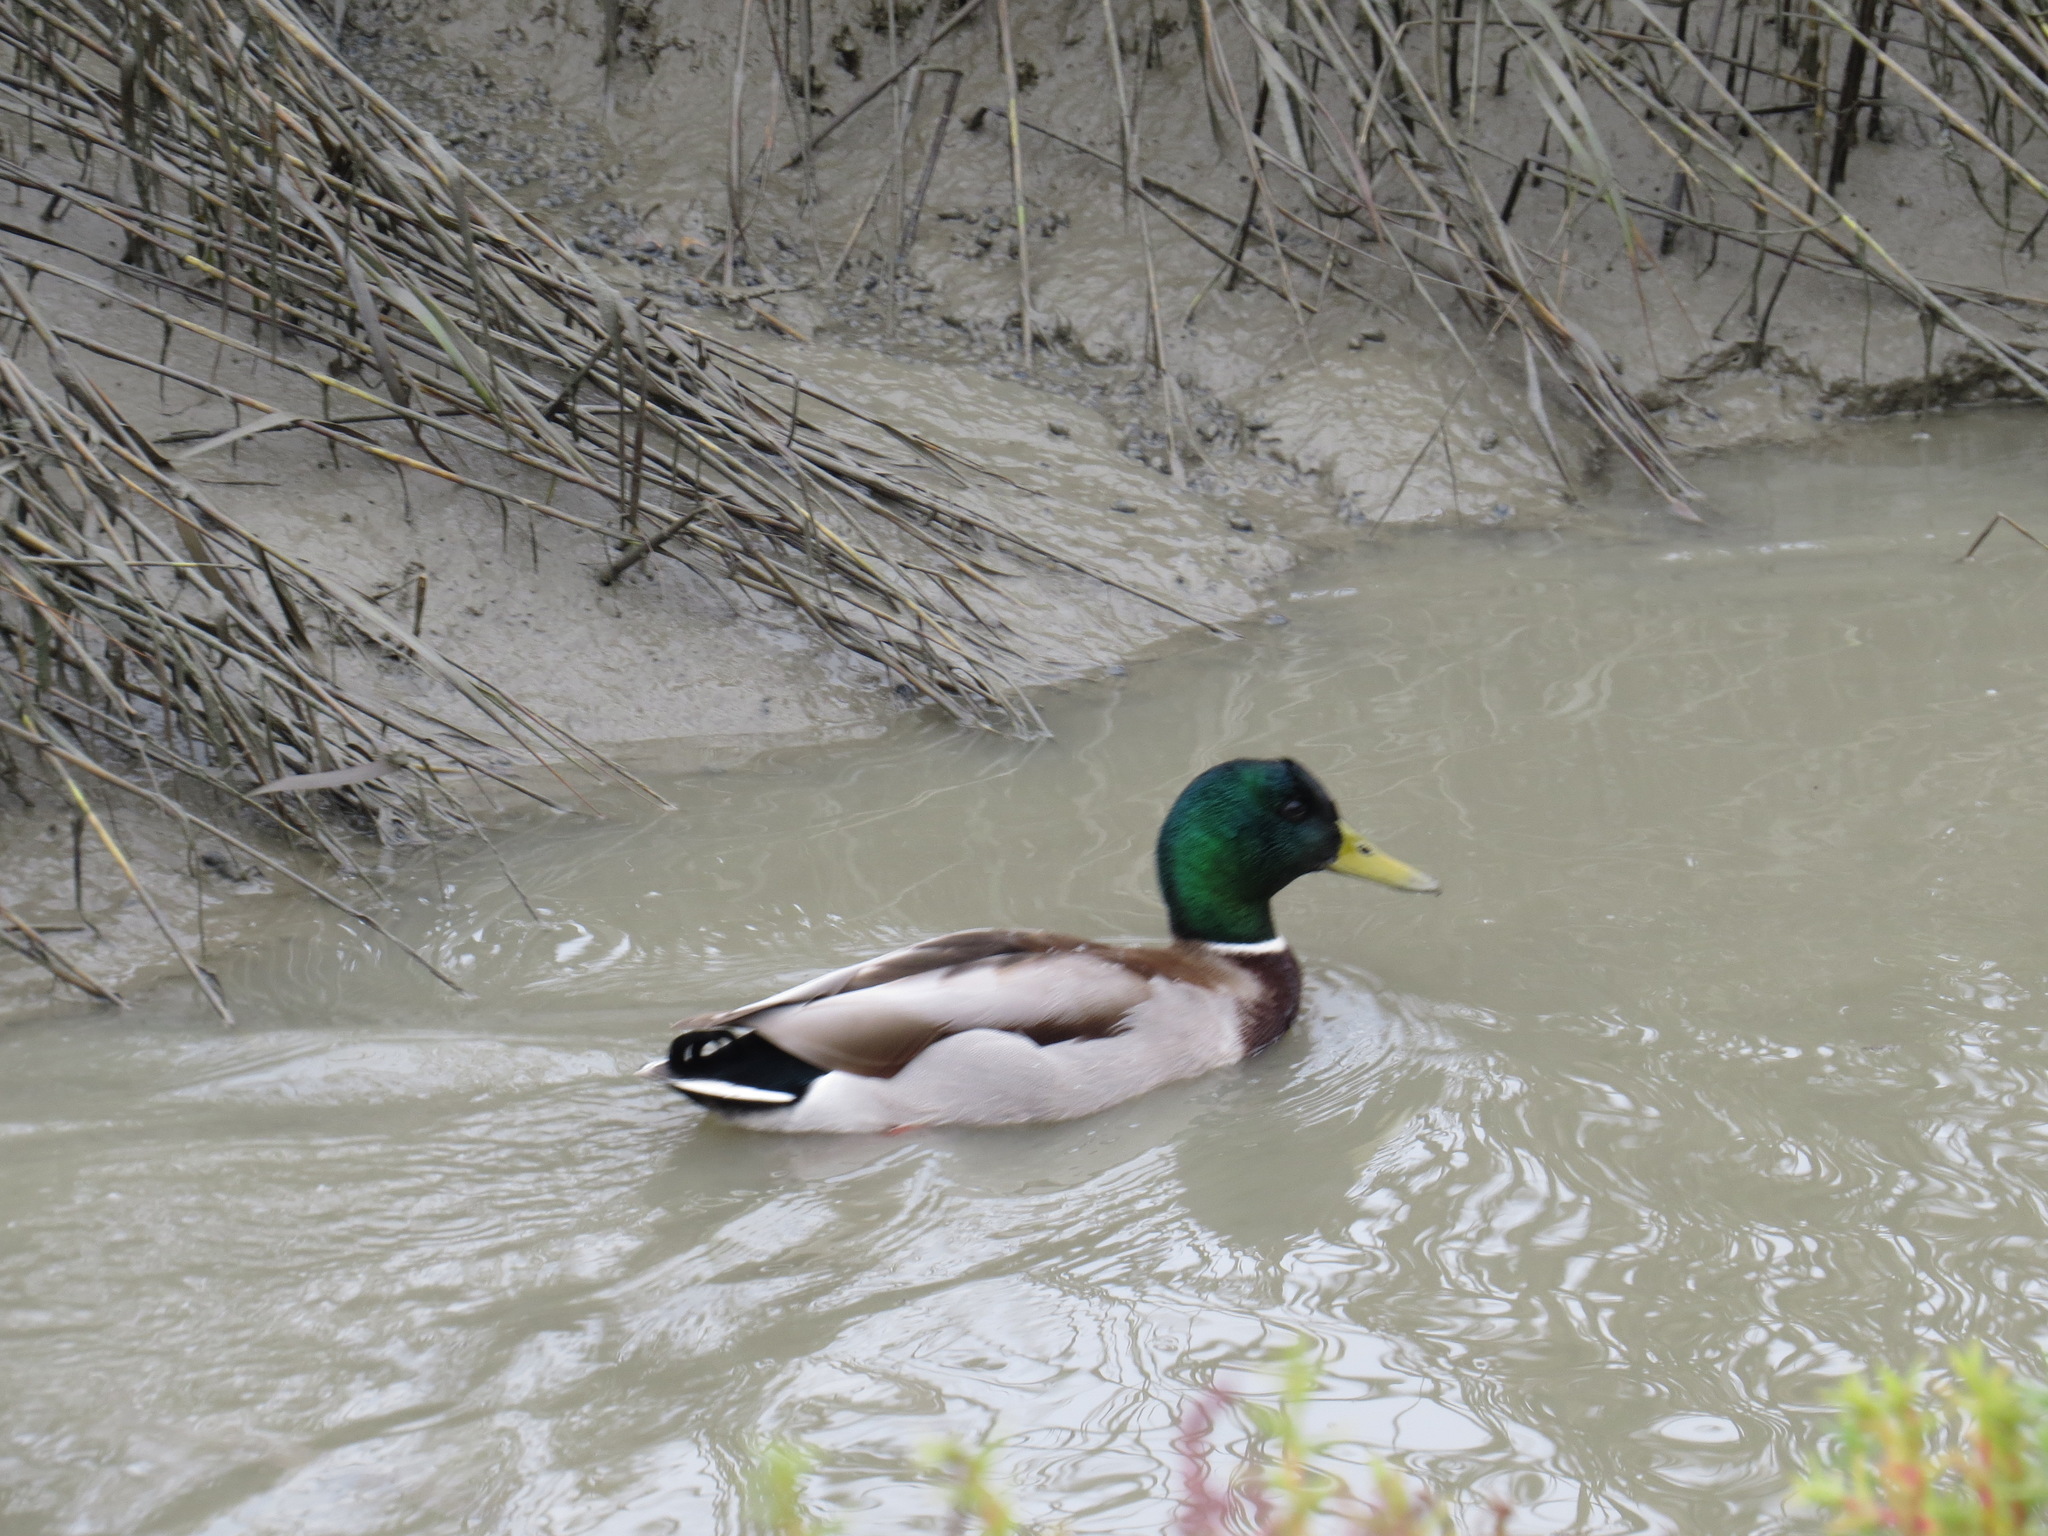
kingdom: Animalia
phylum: Chordata
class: Aves
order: Anseriformes
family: Anatidae
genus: Anas
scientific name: Anas platyrhynchos
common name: Mallard
